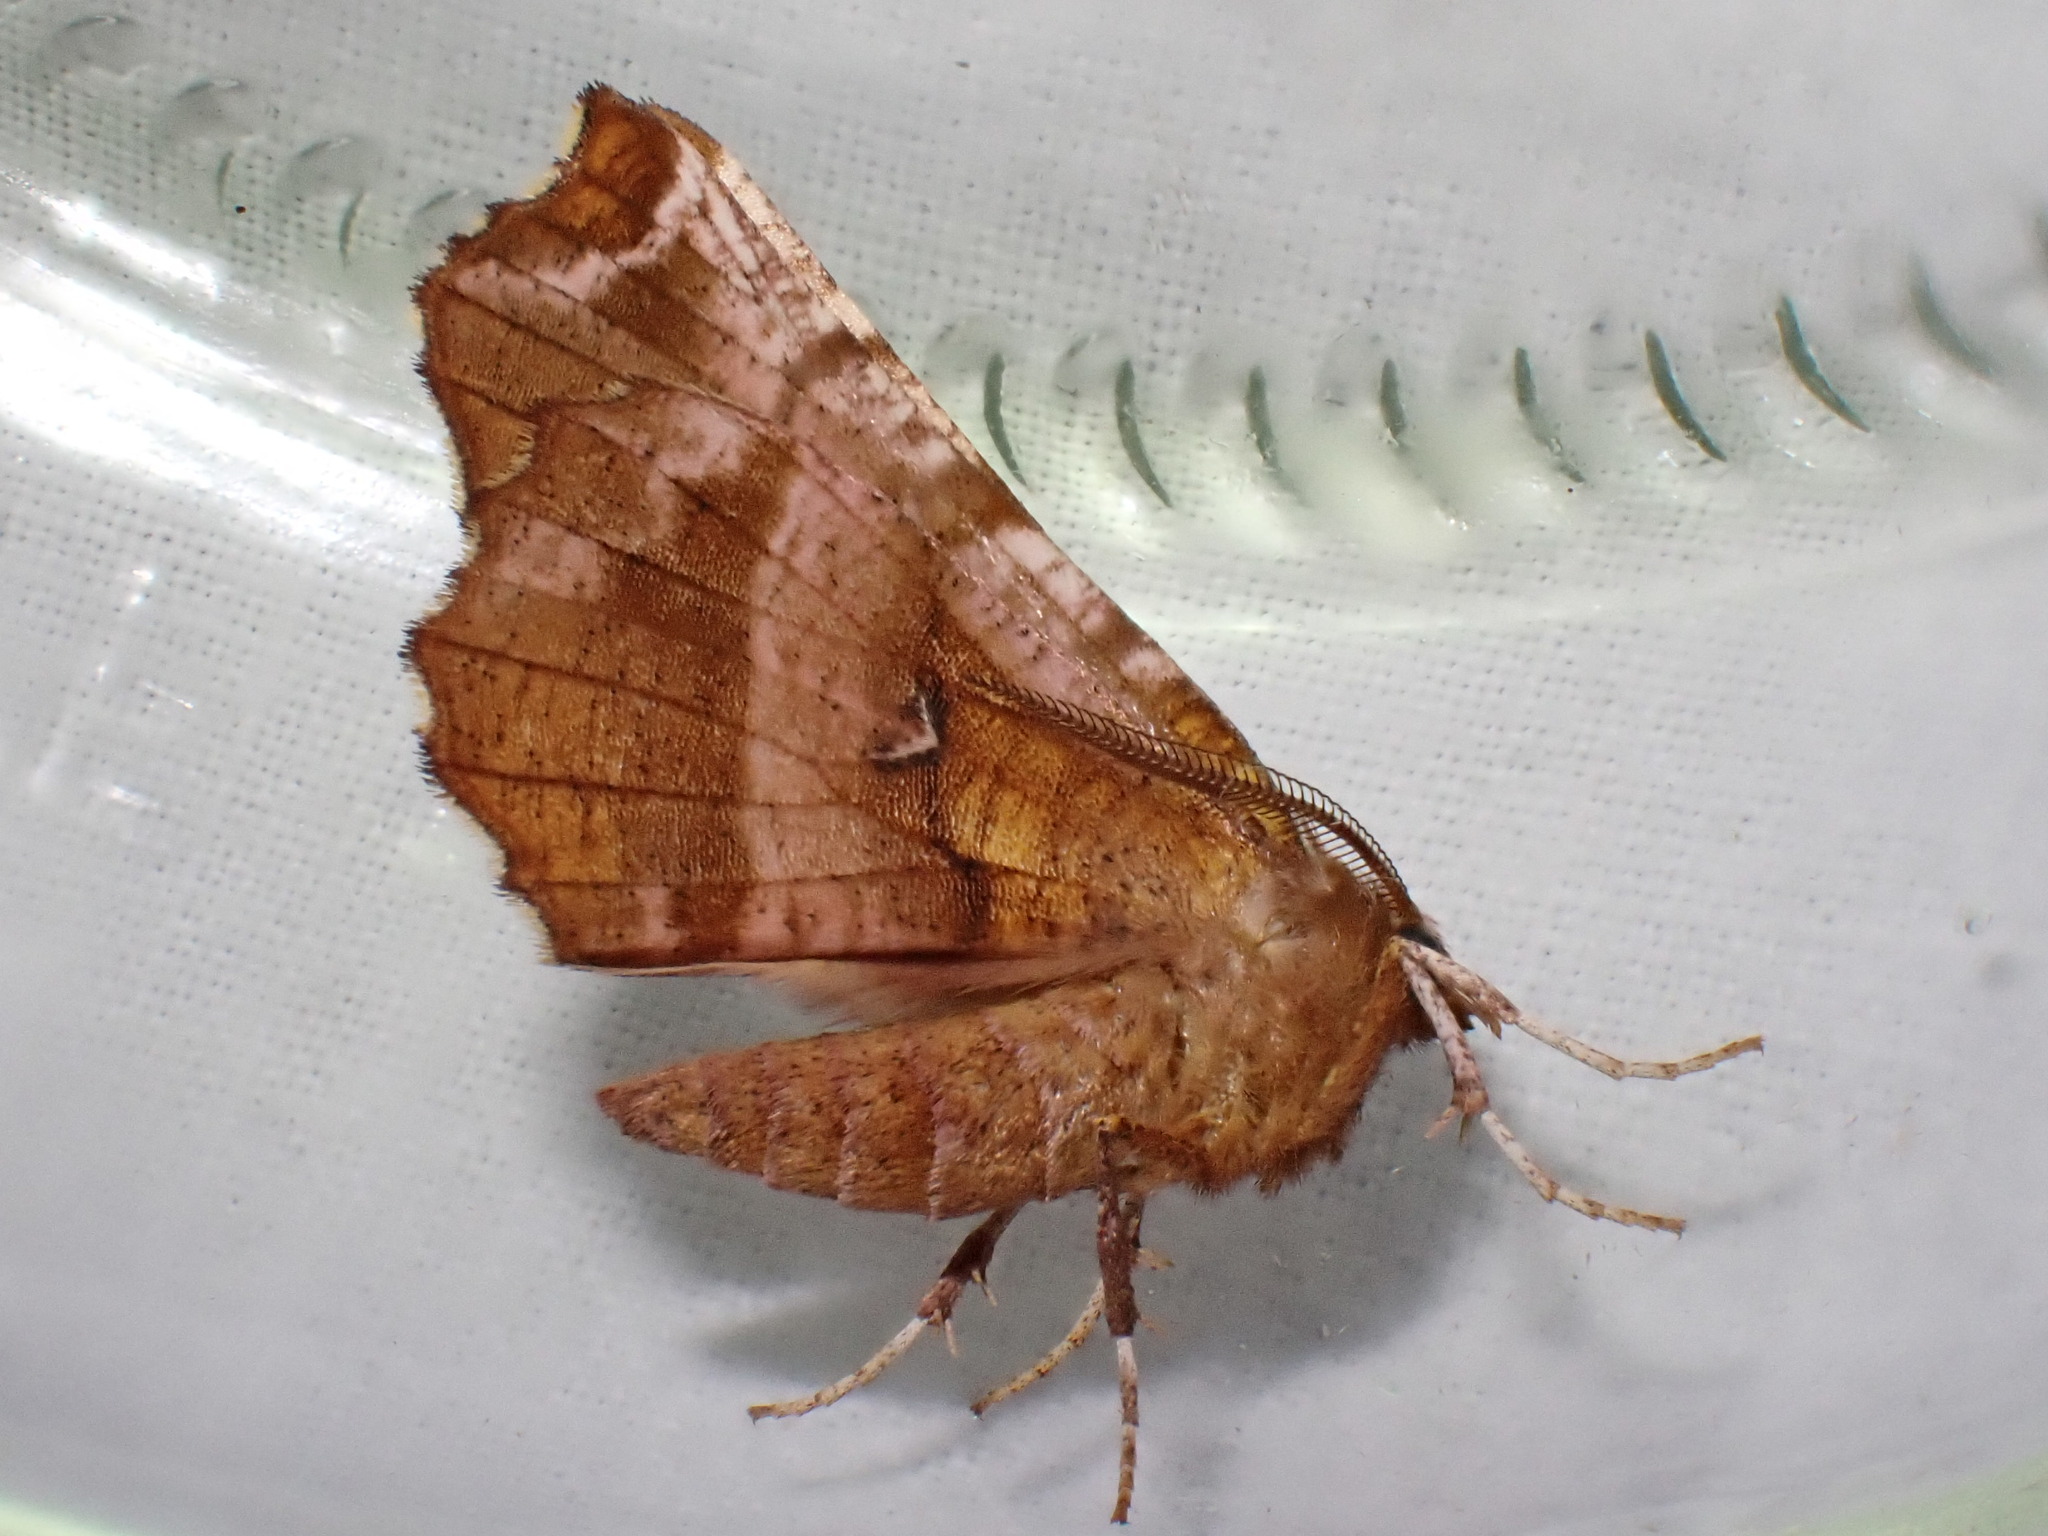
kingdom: Animalia
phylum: Arthropoda
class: Insecta
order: Lepidoptera
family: Geometridae
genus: Selenia
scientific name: Selenia dentaria
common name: Early thorn
